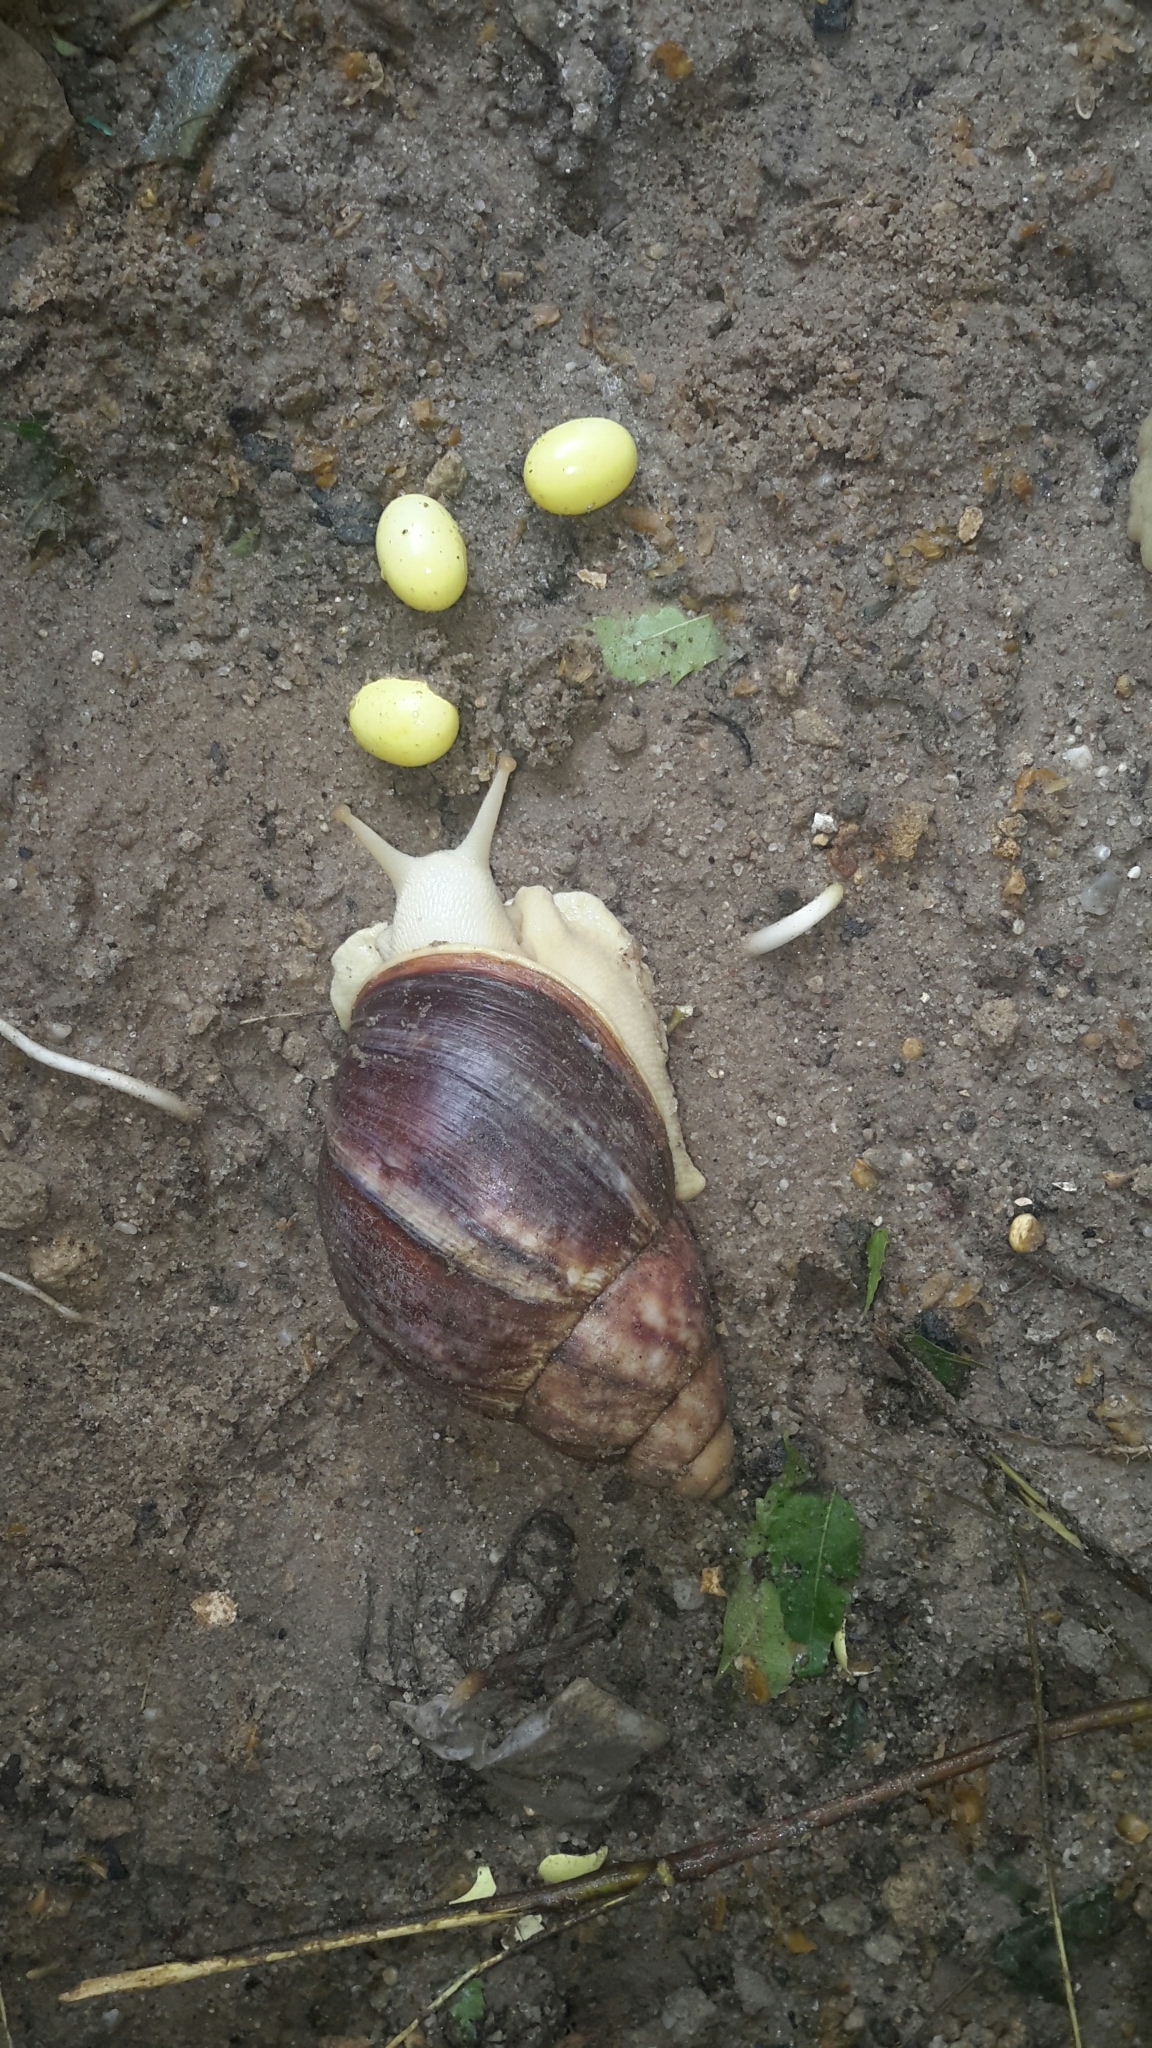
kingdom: Animalia
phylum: Mollusca
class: Gastropoda
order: Stylommatophora
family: Achatinidae
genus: Archachatina
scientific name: Archachatina puylaerti
